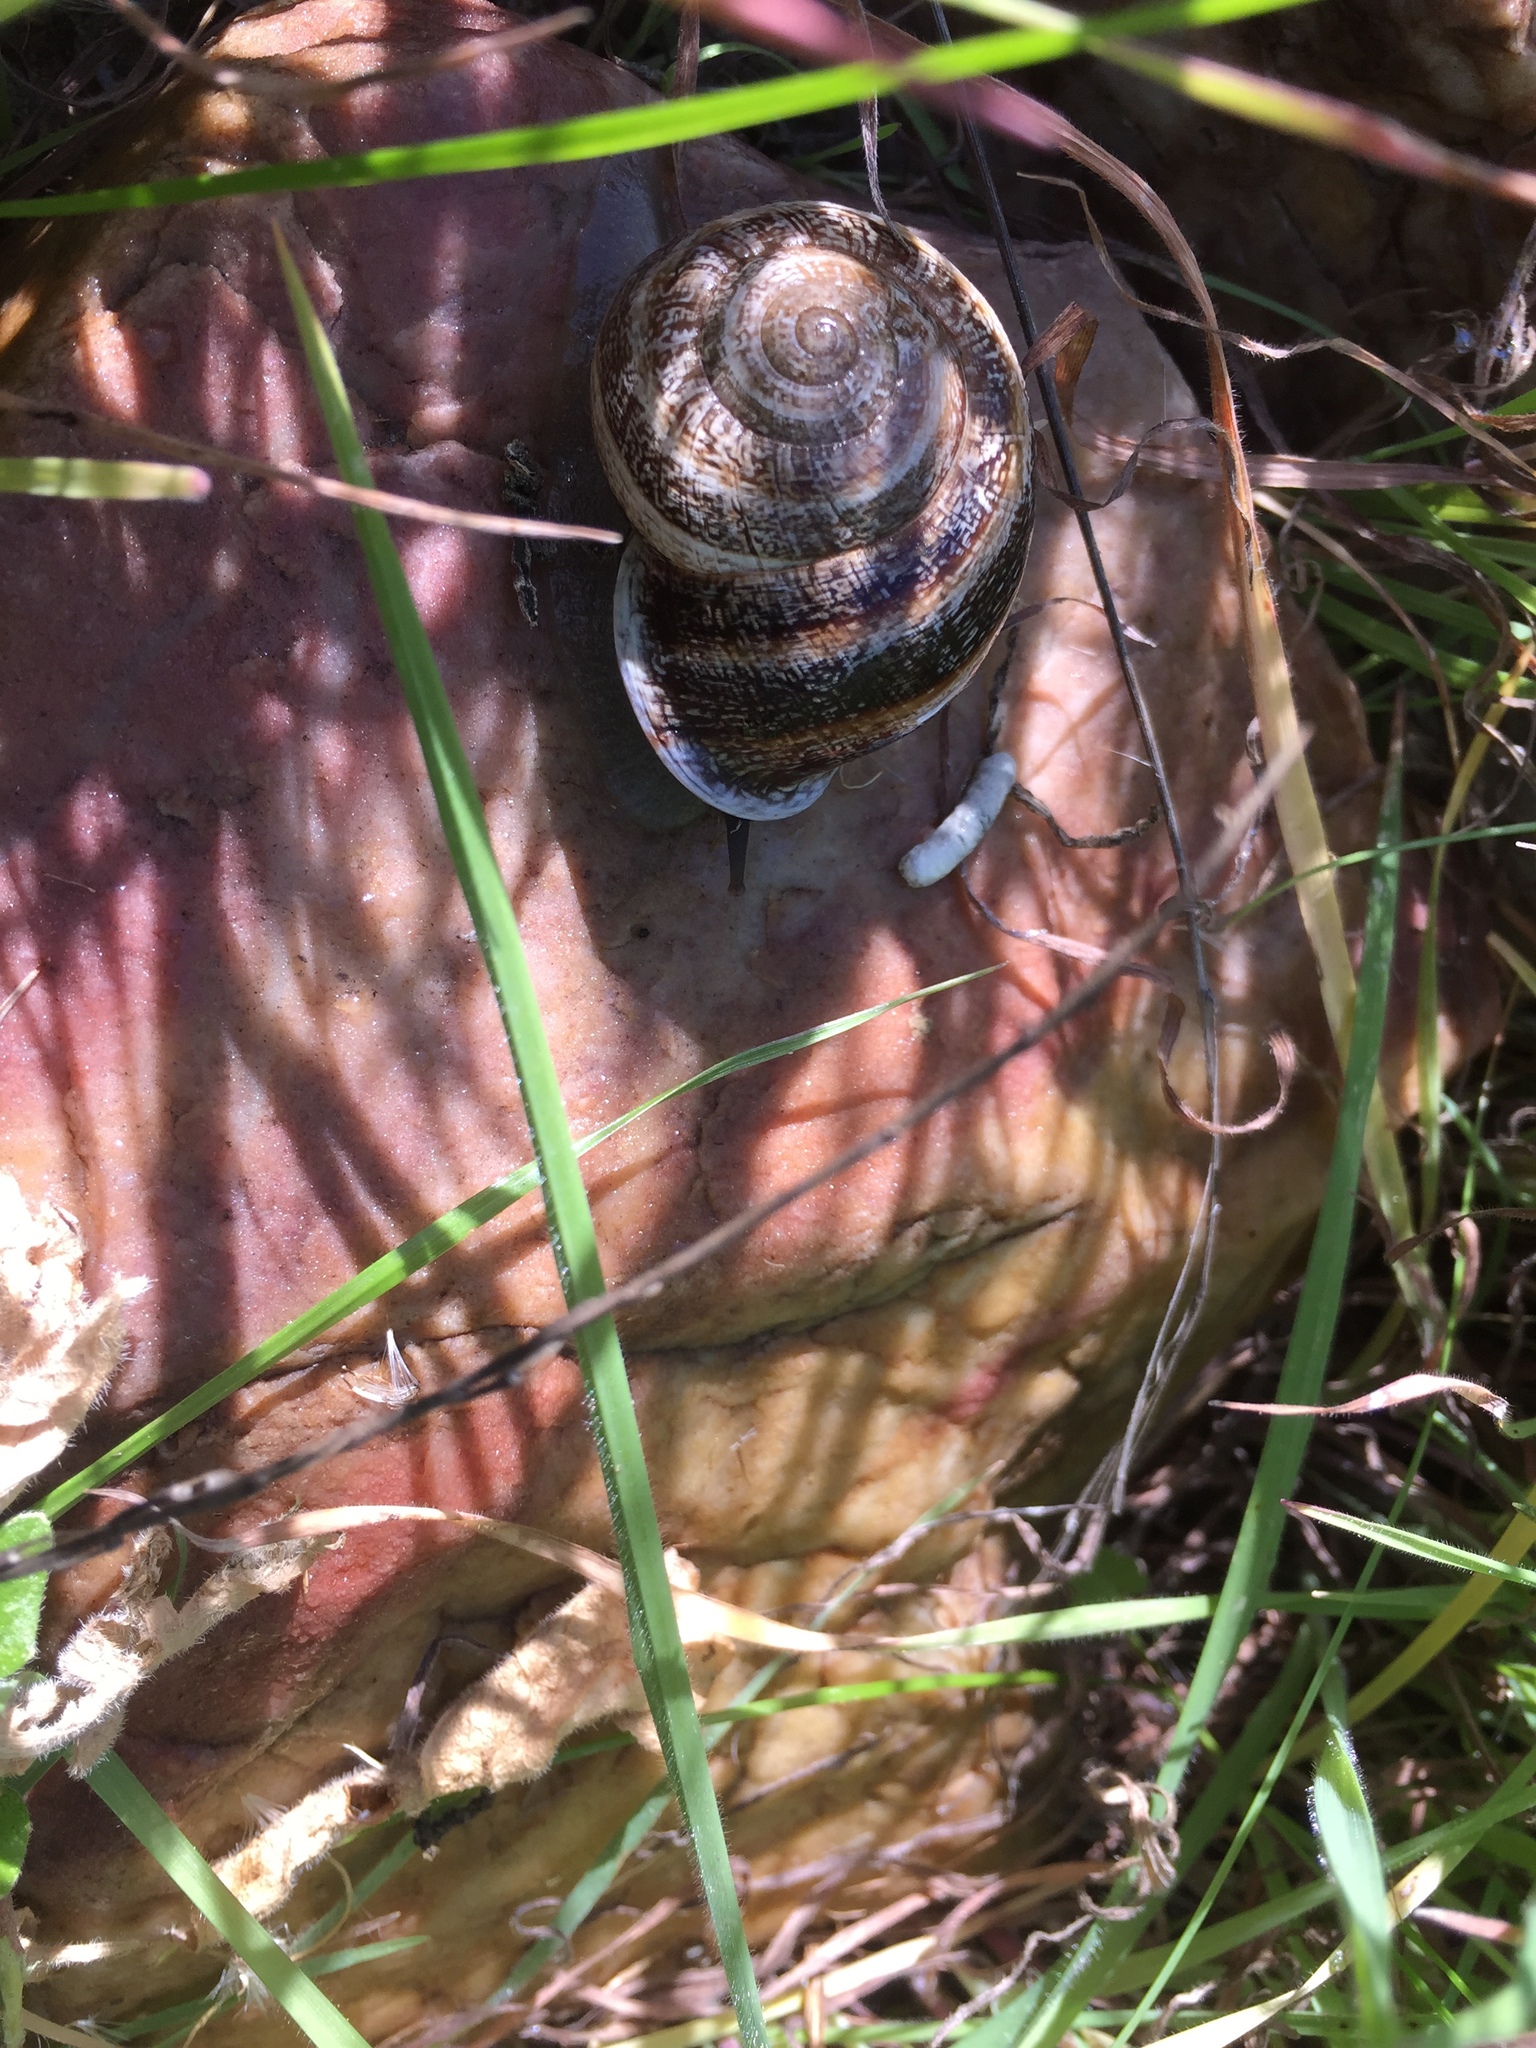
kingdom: Animalia
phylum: Mollusca
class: Gastropoda
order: Stylommatophora
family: Helicidae
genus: Otala
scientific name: Otala lactea
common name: Milk snail
